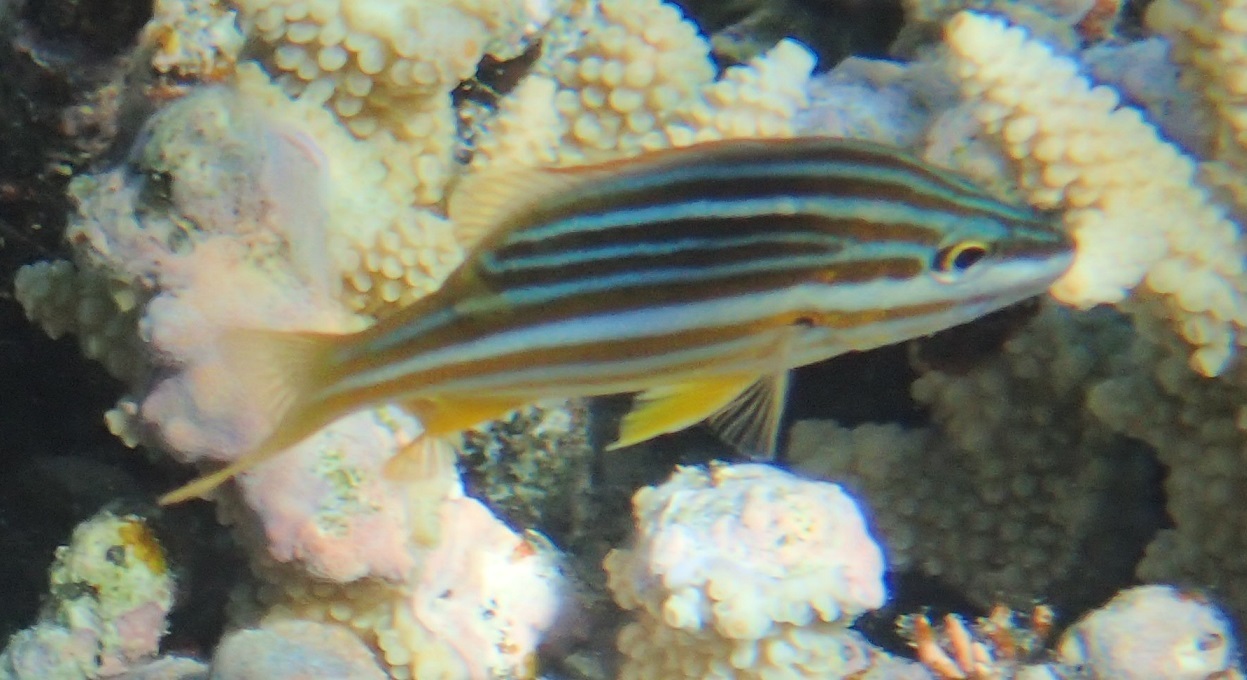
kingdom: Animalia
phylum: Chordata
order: Perciformes
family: Lutjanidae
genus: Lutjanus
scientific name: Lutjanus carponotatus
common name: Spanish flag
